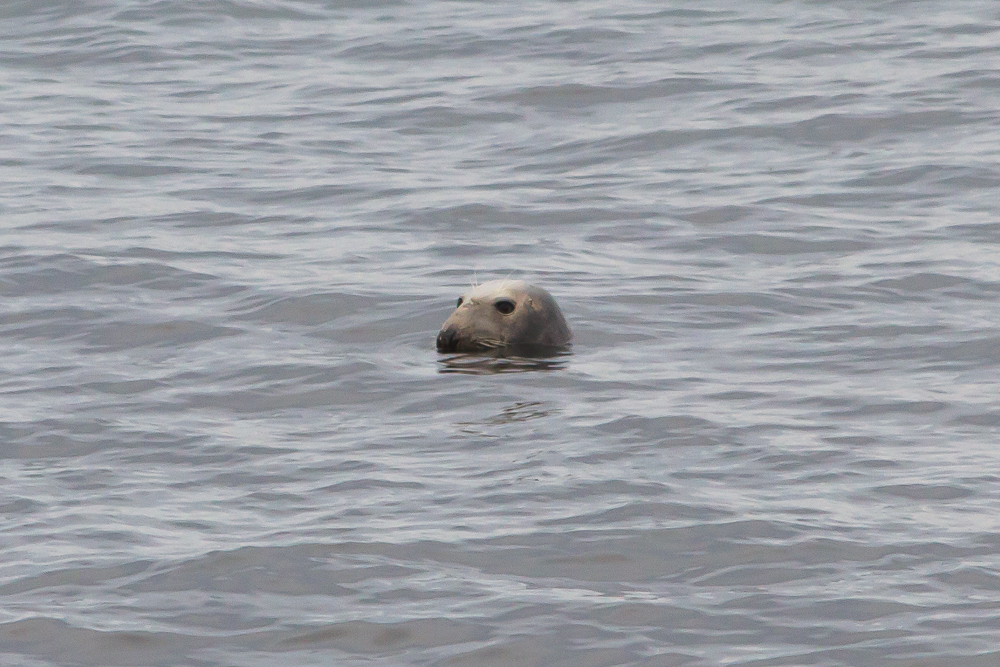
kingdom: Animalia
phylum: Chordata
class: Mammalia
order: Carnivora
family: Phocidae
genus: Halichoerus
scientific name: Halichoerus grypus
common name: Grey seal
